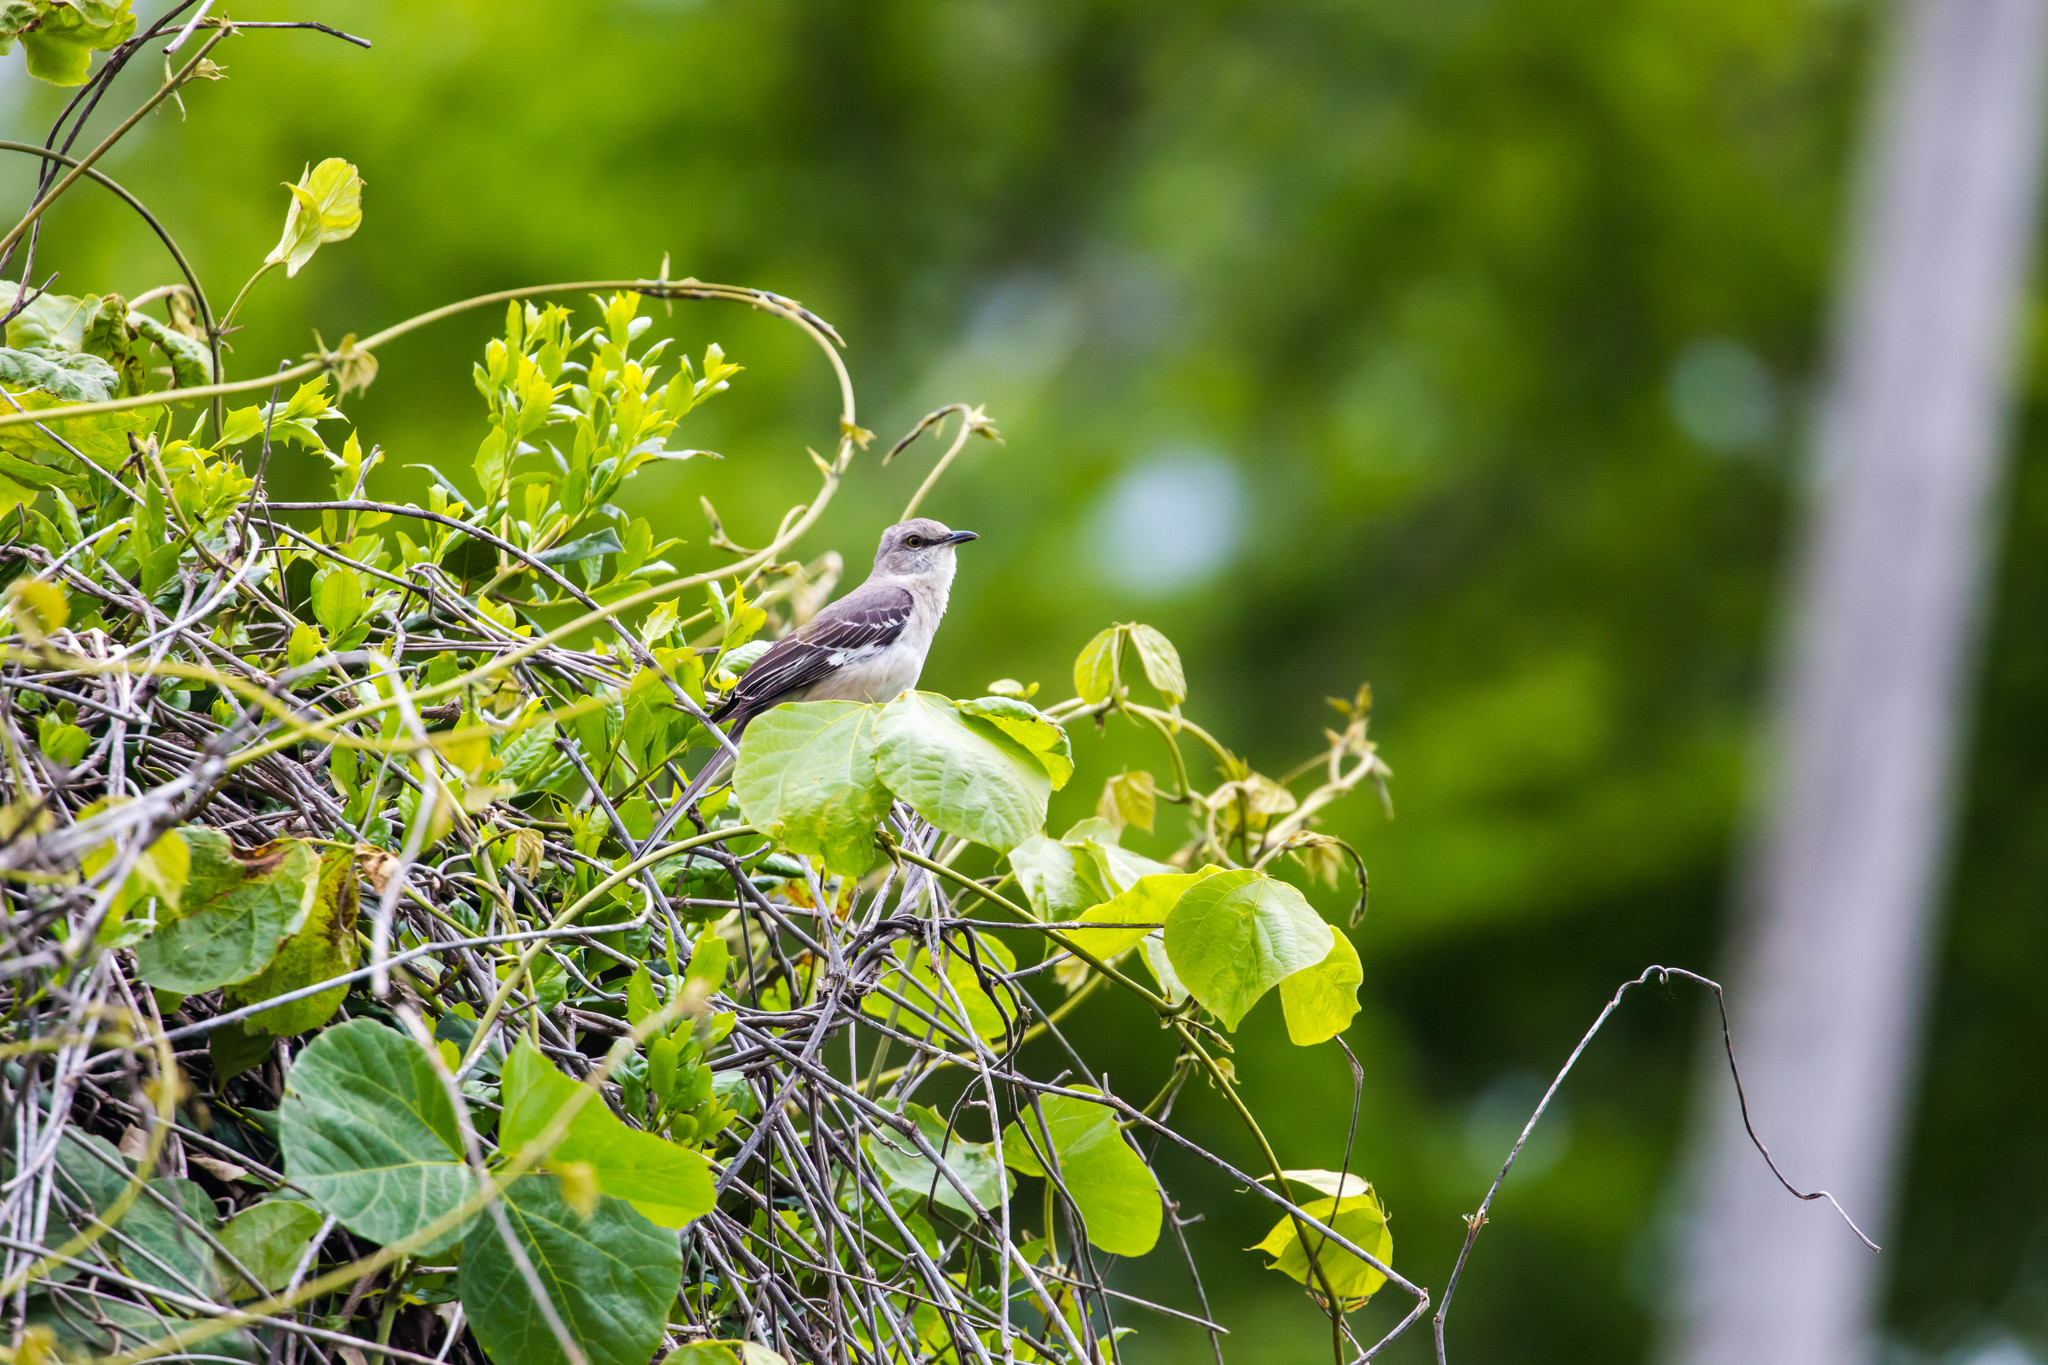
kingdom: Animalia
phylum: Chordata
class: Aves
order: Passeriformes
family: Mimidae
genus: Mimus
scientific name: Mimus polyglottos
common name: Northern mockingbird
